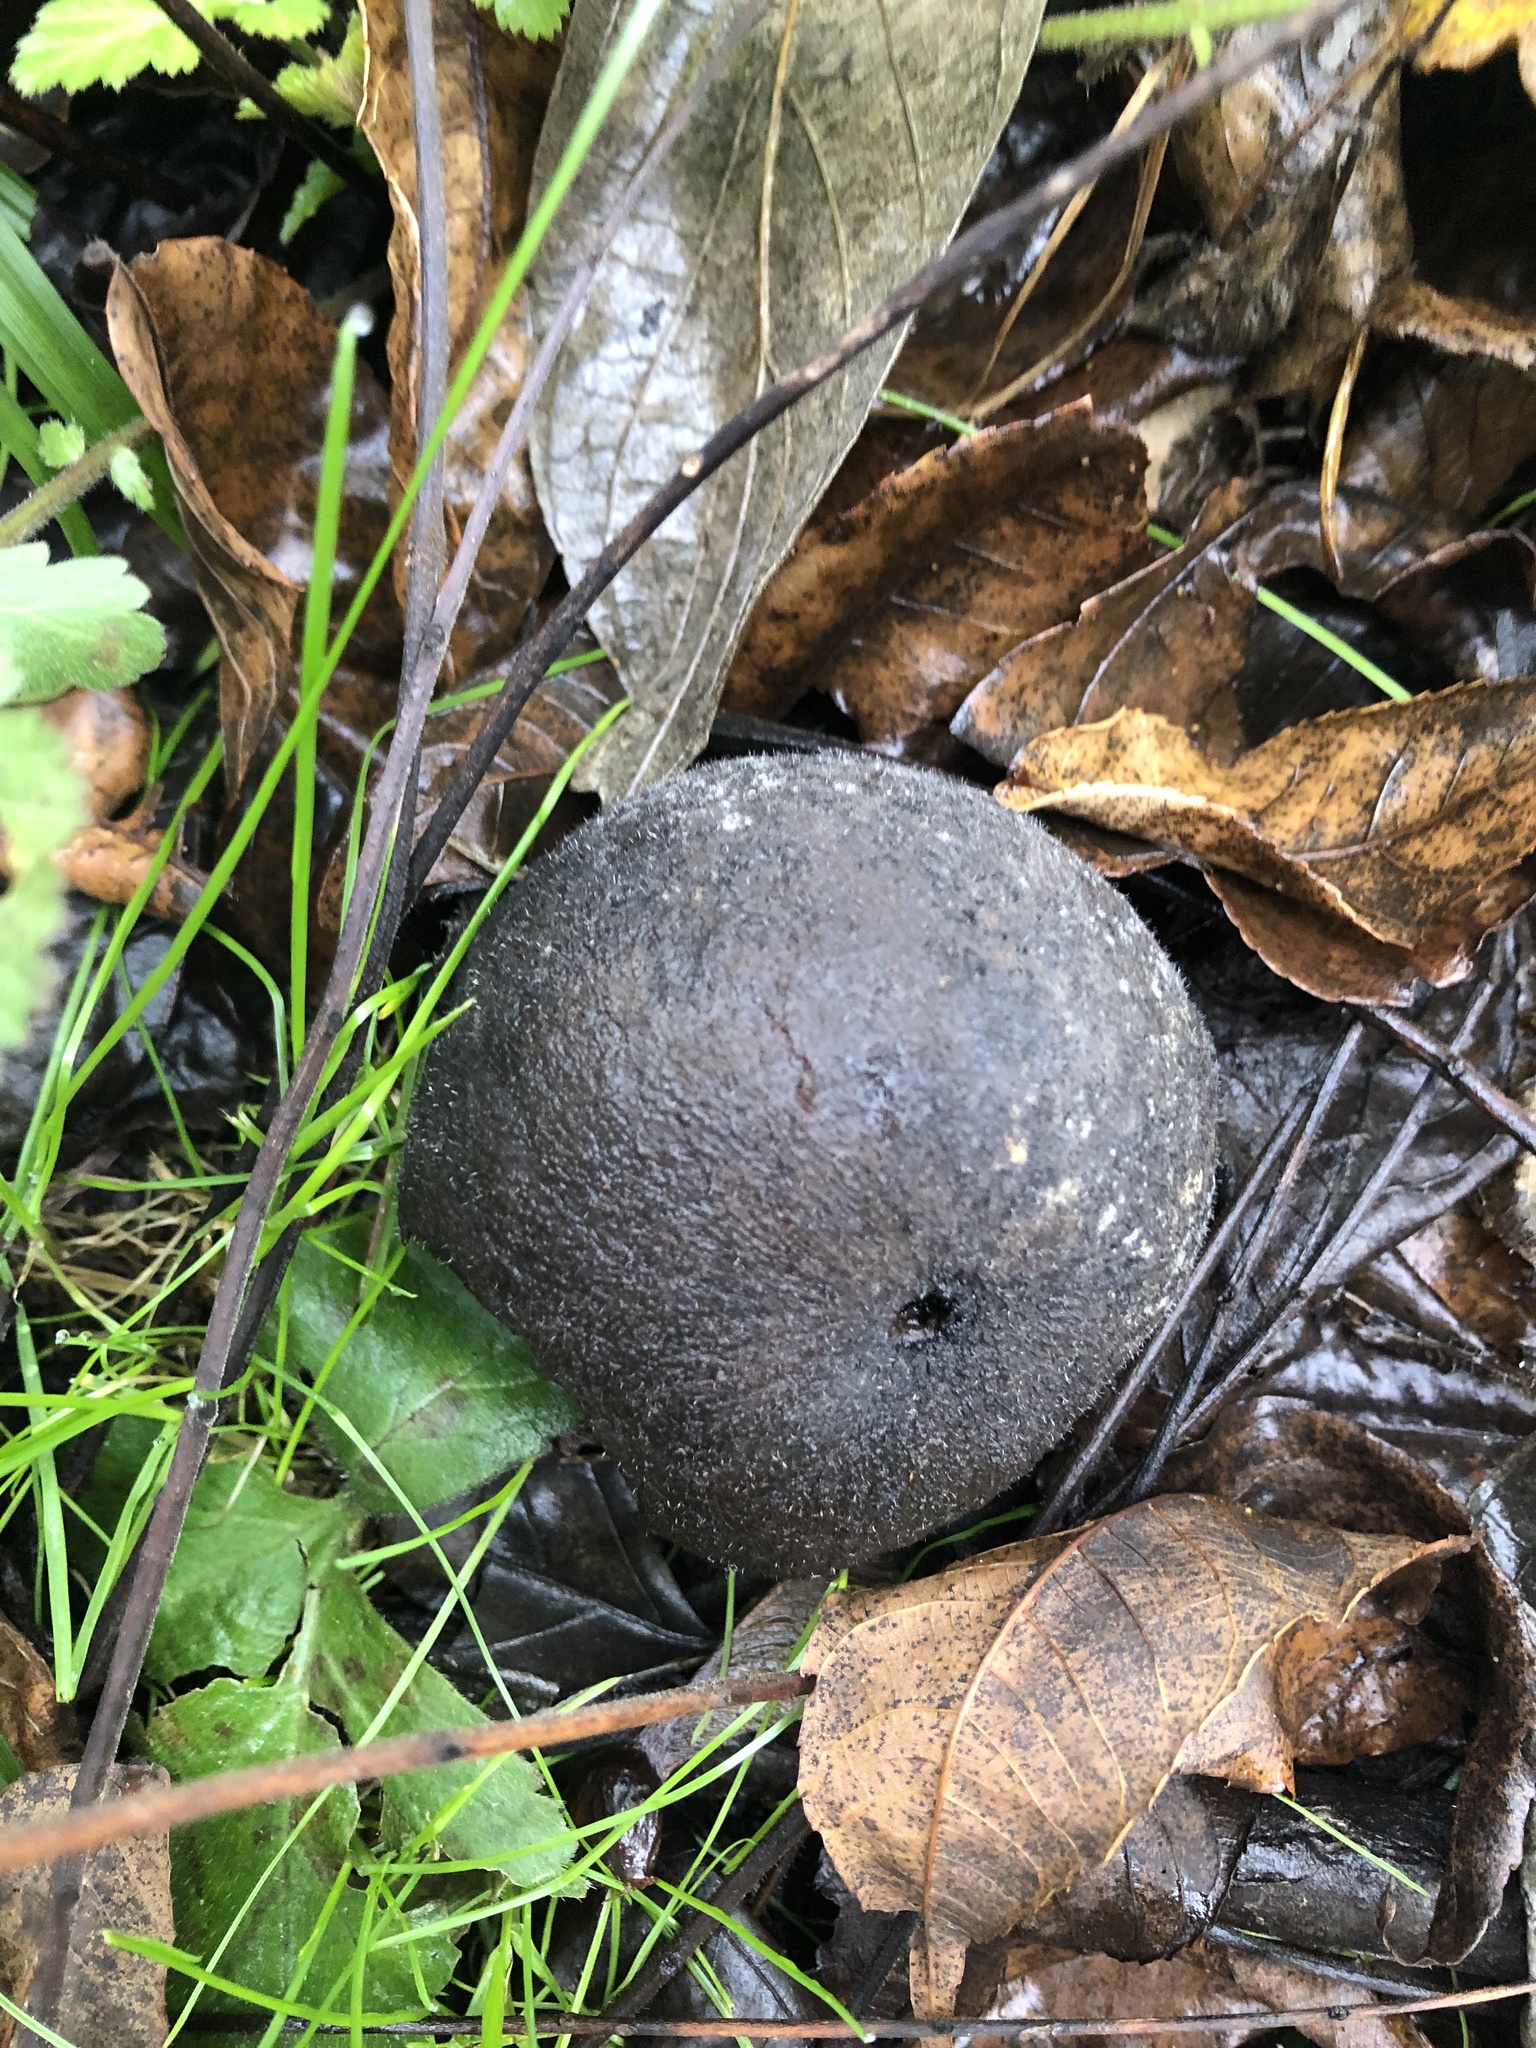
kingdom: Plantae
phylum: Tracheophyta
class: Magnoliopsida
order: Fagales
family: Juglandaceae
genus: Juglans
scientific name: Juglans nigra
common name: Black walnut
